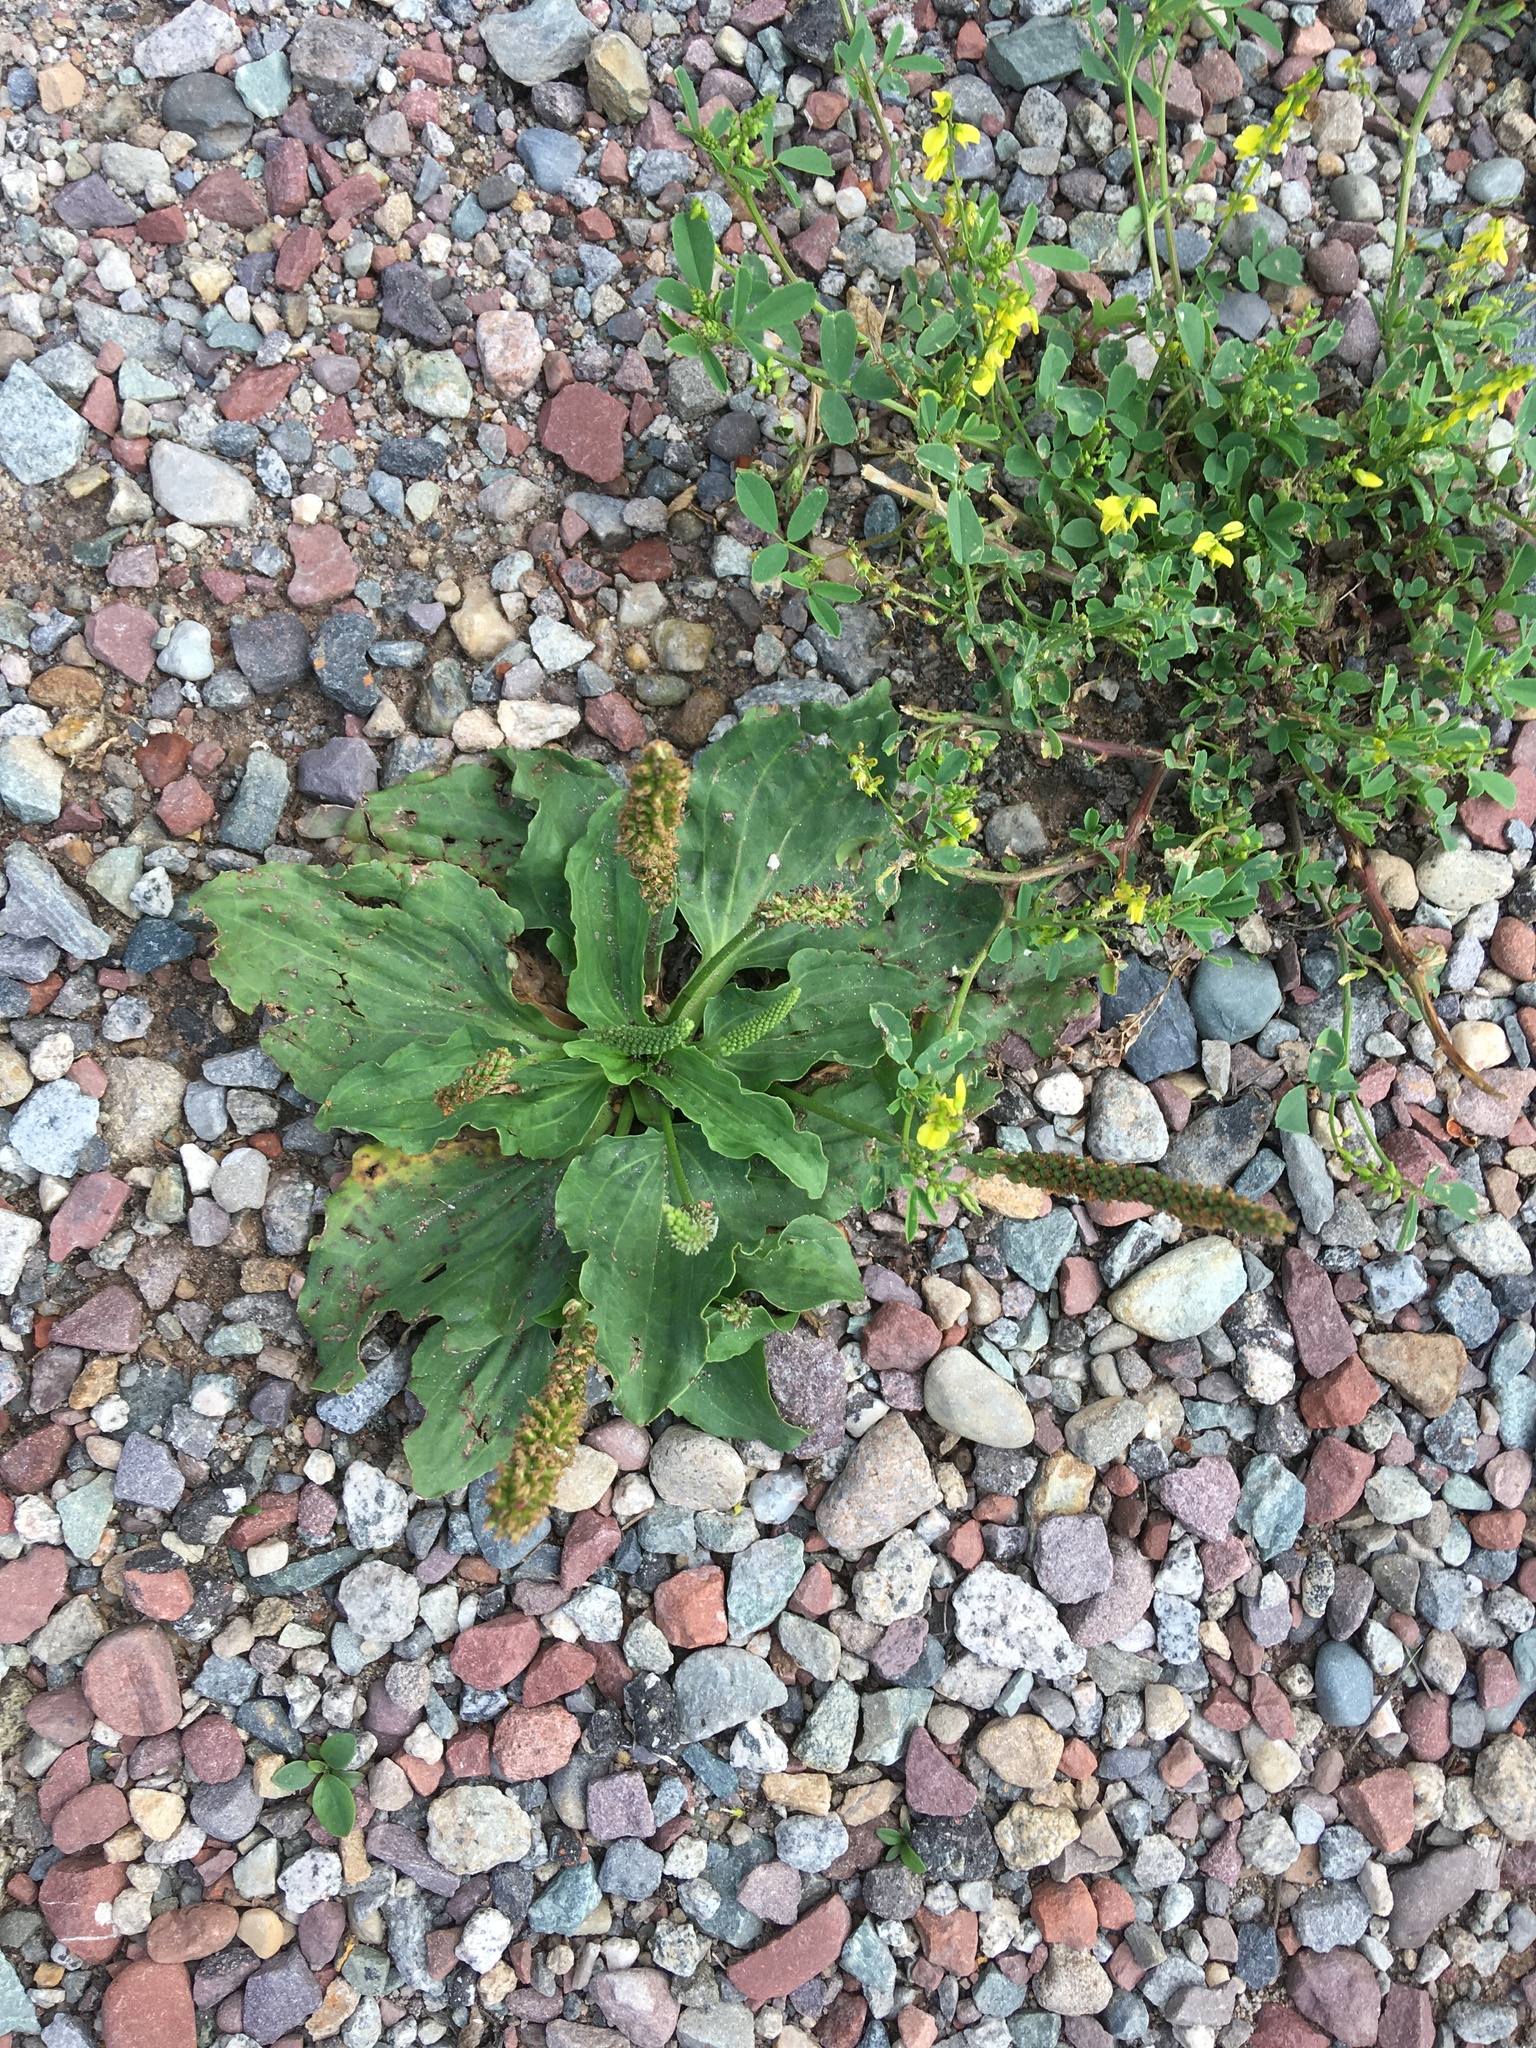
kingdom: Plantae
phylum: Tracheophyta
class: Magnoliopsida
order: Lamiales
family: Plantaginaceae
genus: Plantago
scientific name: Plantago major
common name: Common plantain
